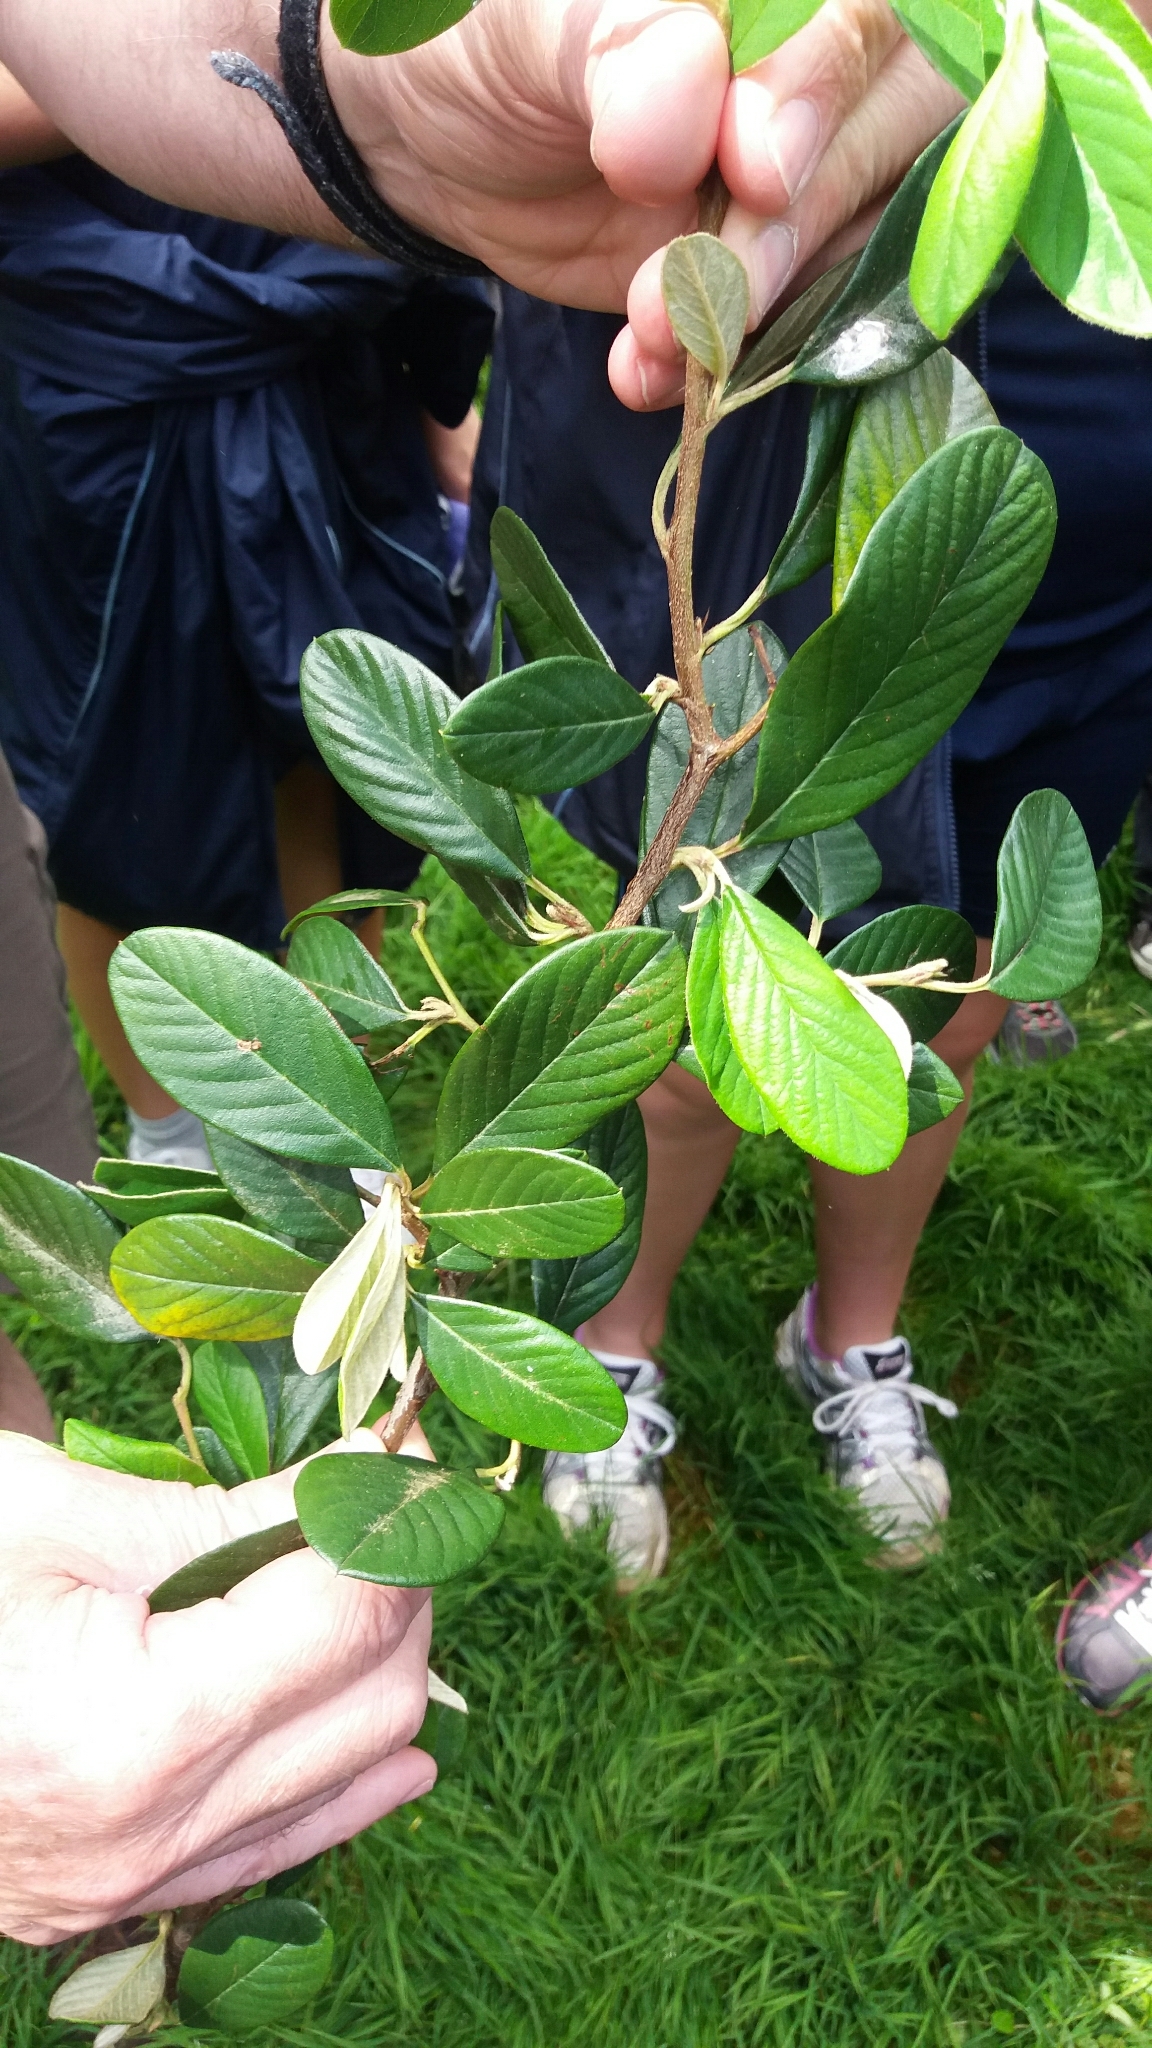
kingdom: Plantae
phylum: Tracheophyta
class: Magnoliopsida
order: Rosales
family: Rosaceae
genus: Cotoneaster
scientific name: Cotoneaster coriaceus
